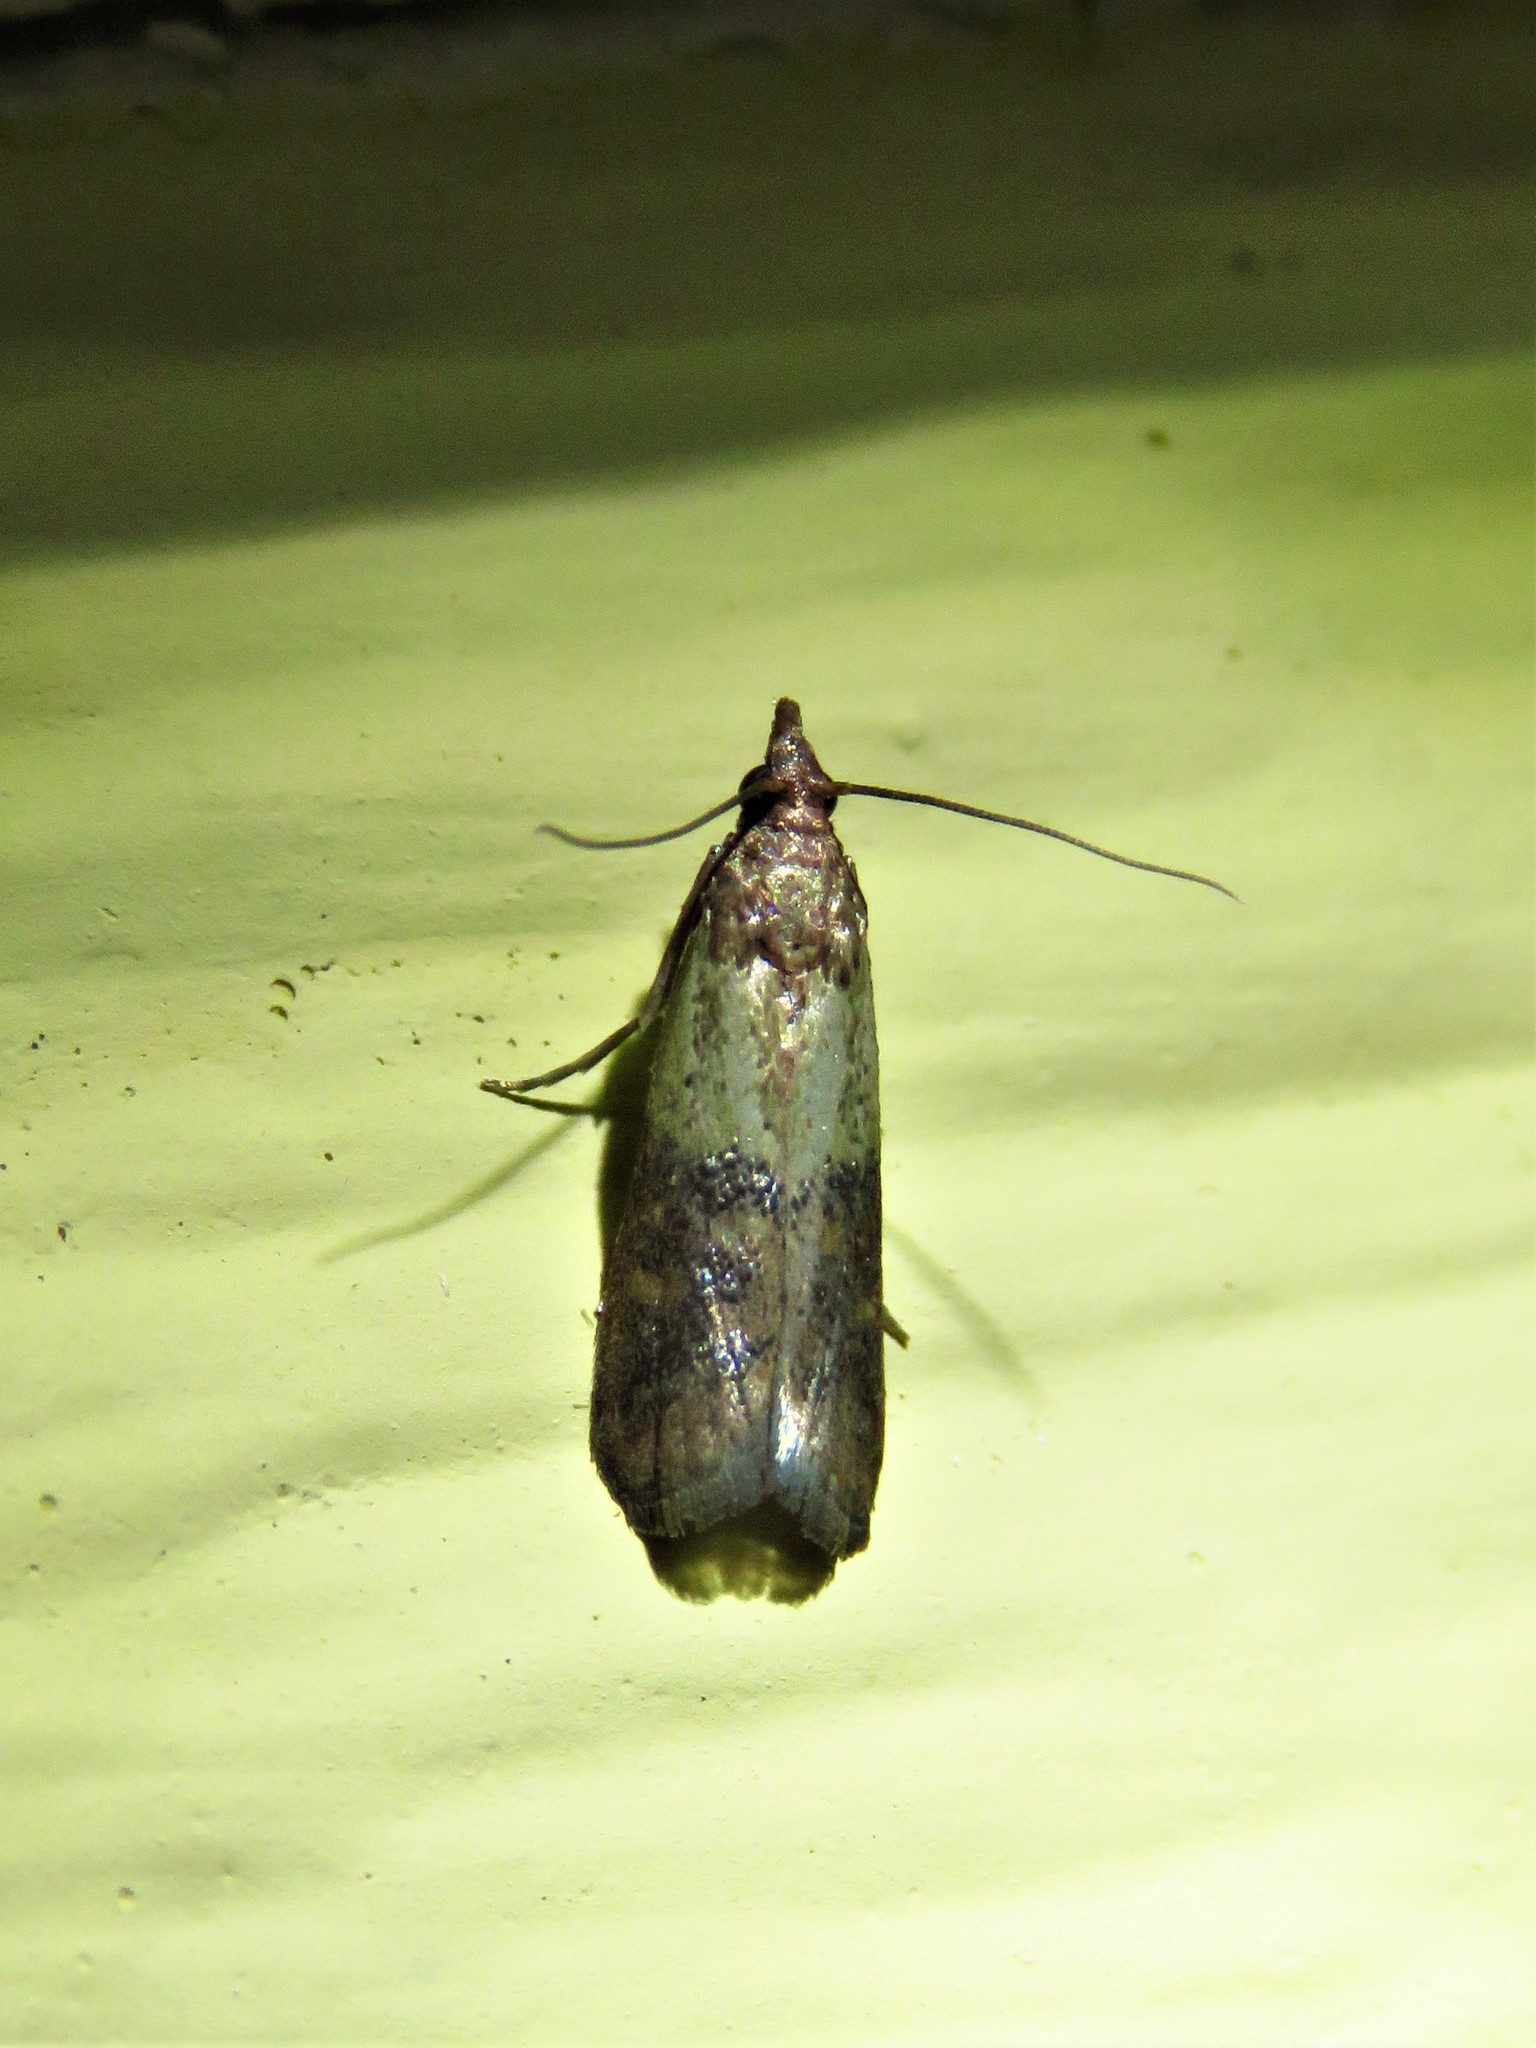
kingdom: Animalia
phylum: Arthropoda
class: Insecta
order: Lepidoptera
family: Pyralidae
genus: Plodia
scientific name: Plodia interpunctella
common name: Indian meal moth
